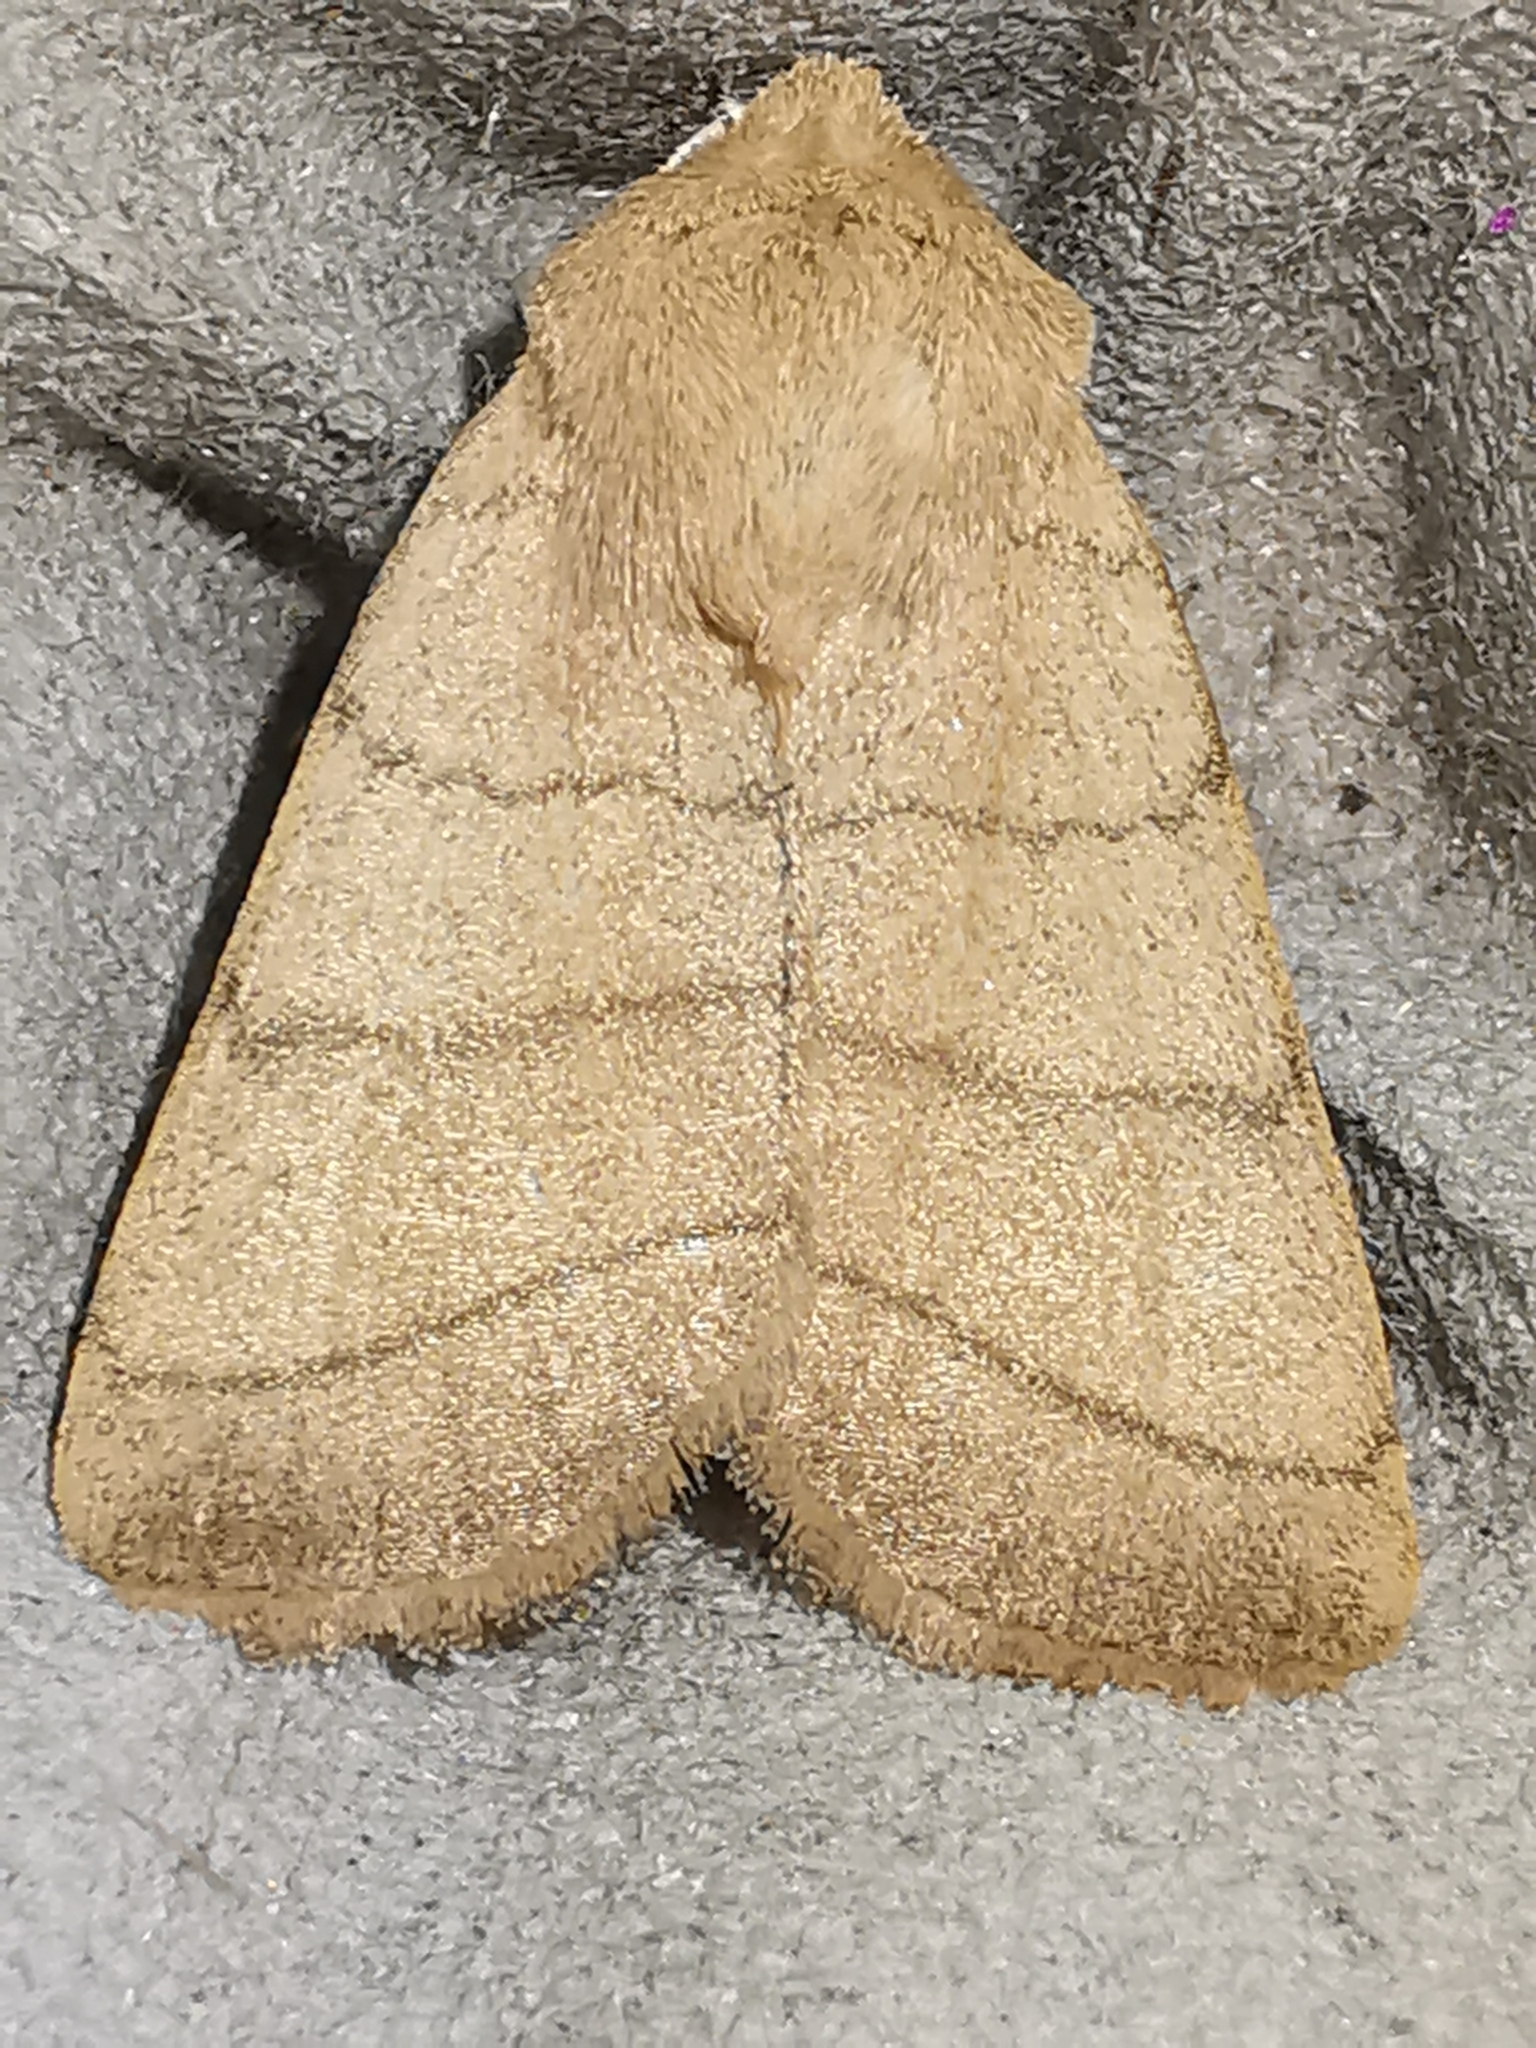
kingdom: Animalia
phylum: Arthropoda
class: Insecta
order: Lepidoptera
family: Noctuidae
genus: Charanyca
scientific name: Charanyca trigrammica
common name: Treble lines
